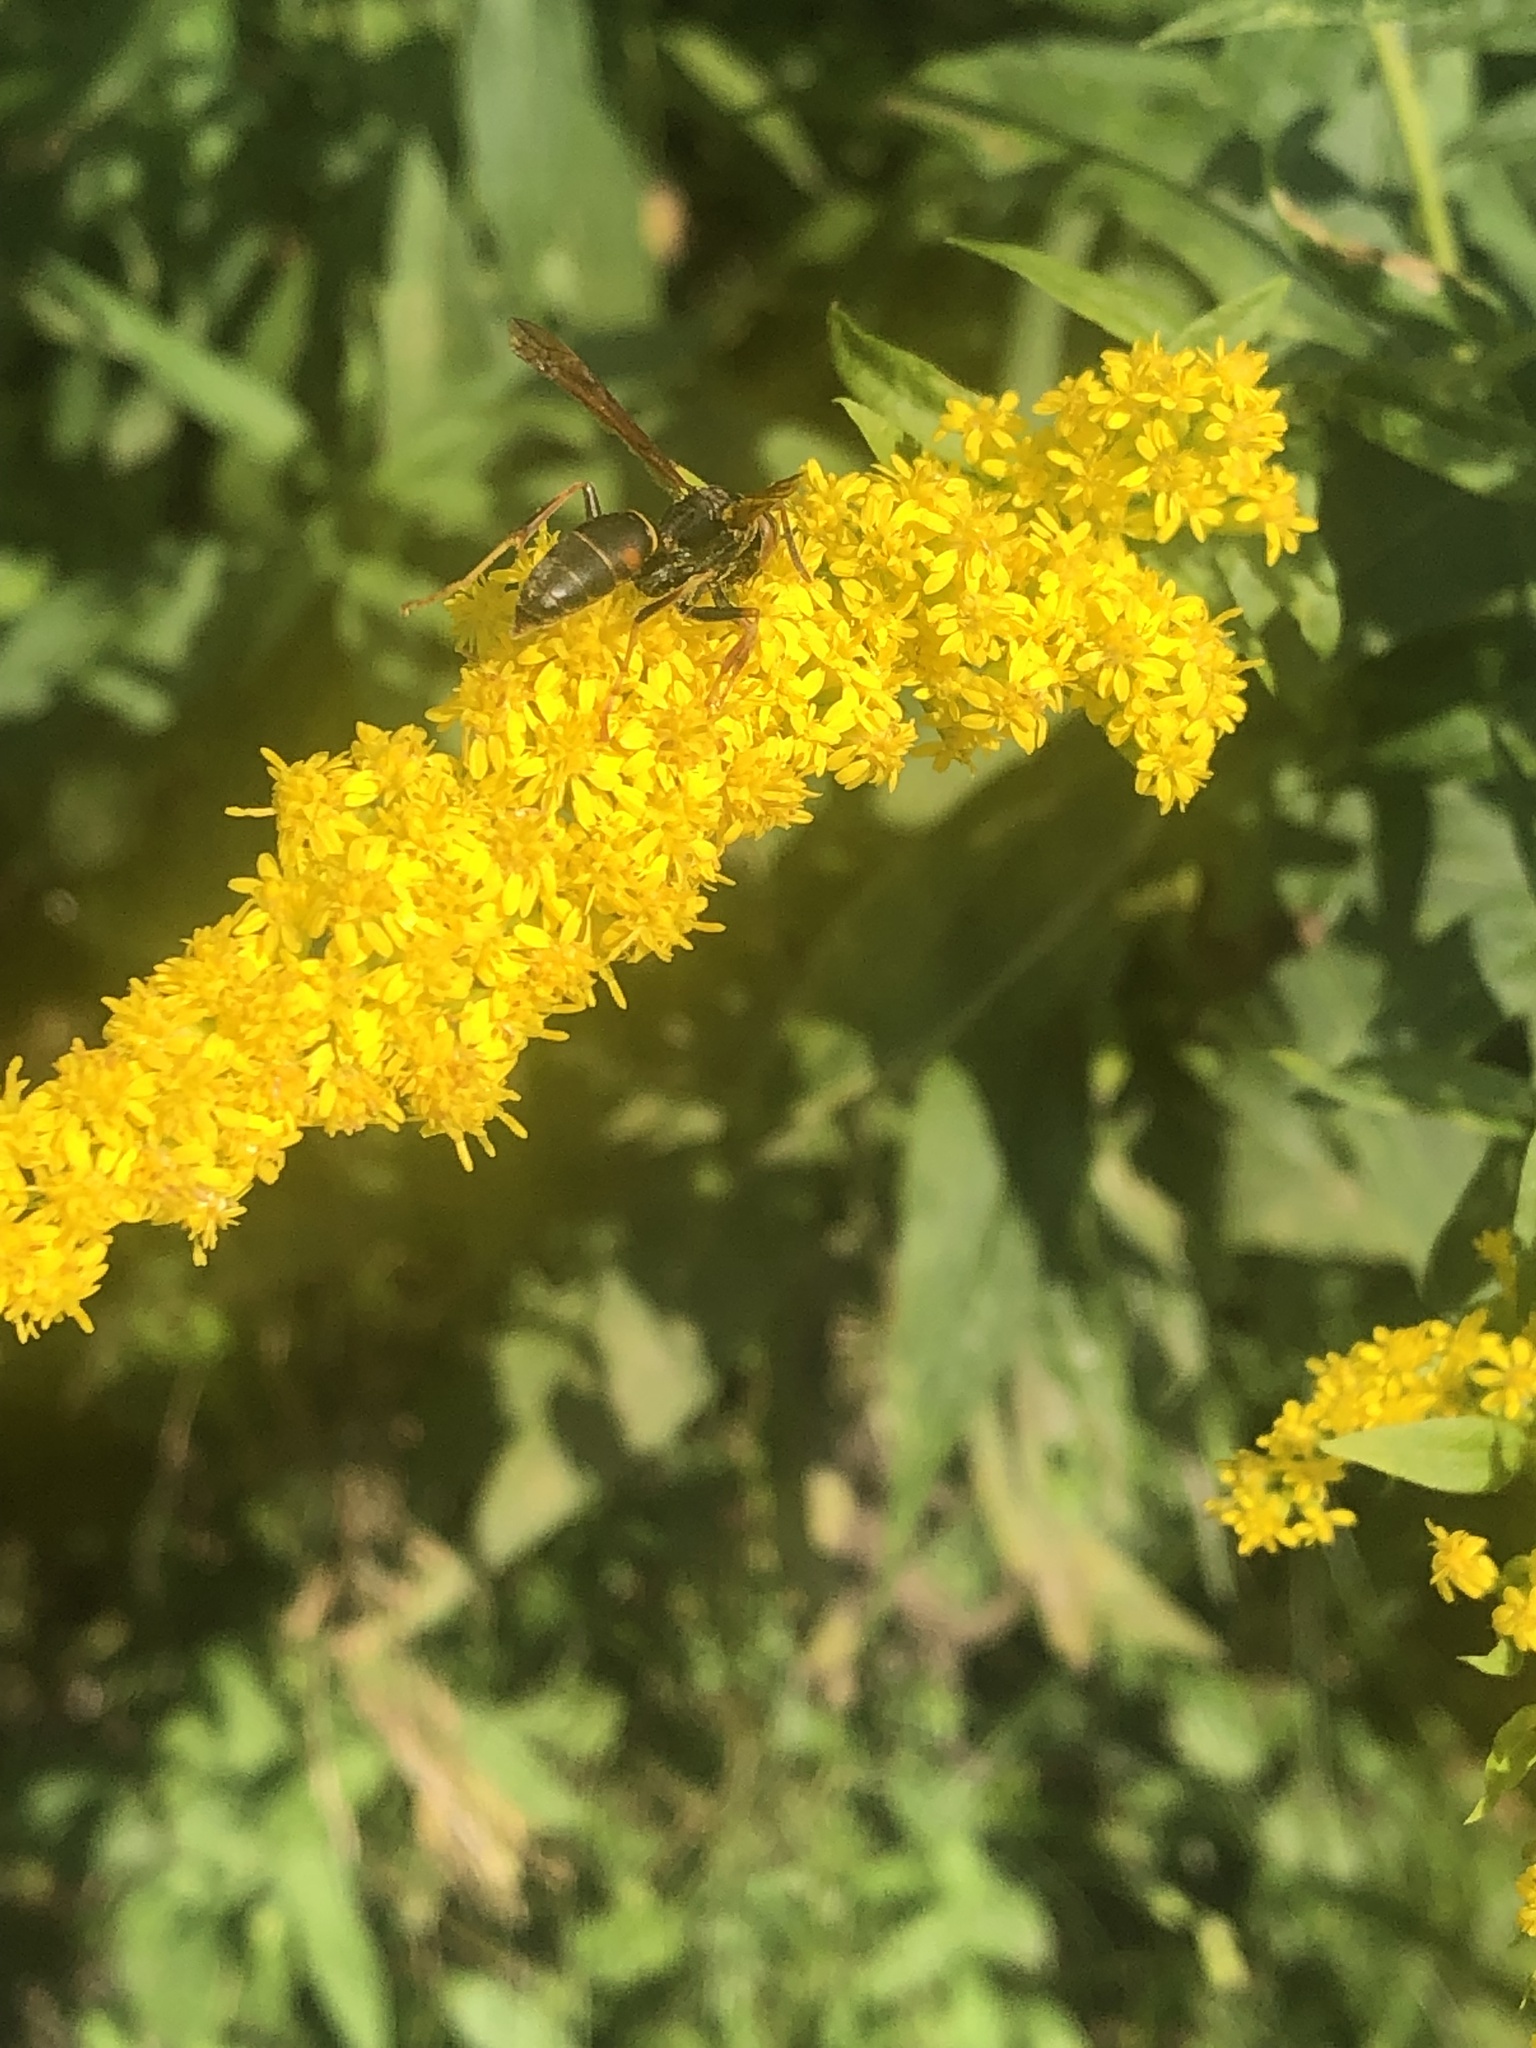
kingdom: Animalia
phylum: Arthropoda
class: Insecta
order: Hymenoptera
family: Eumenidae
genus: Polistes
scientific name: Polistes fuscatus
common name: Dark paper wasp
